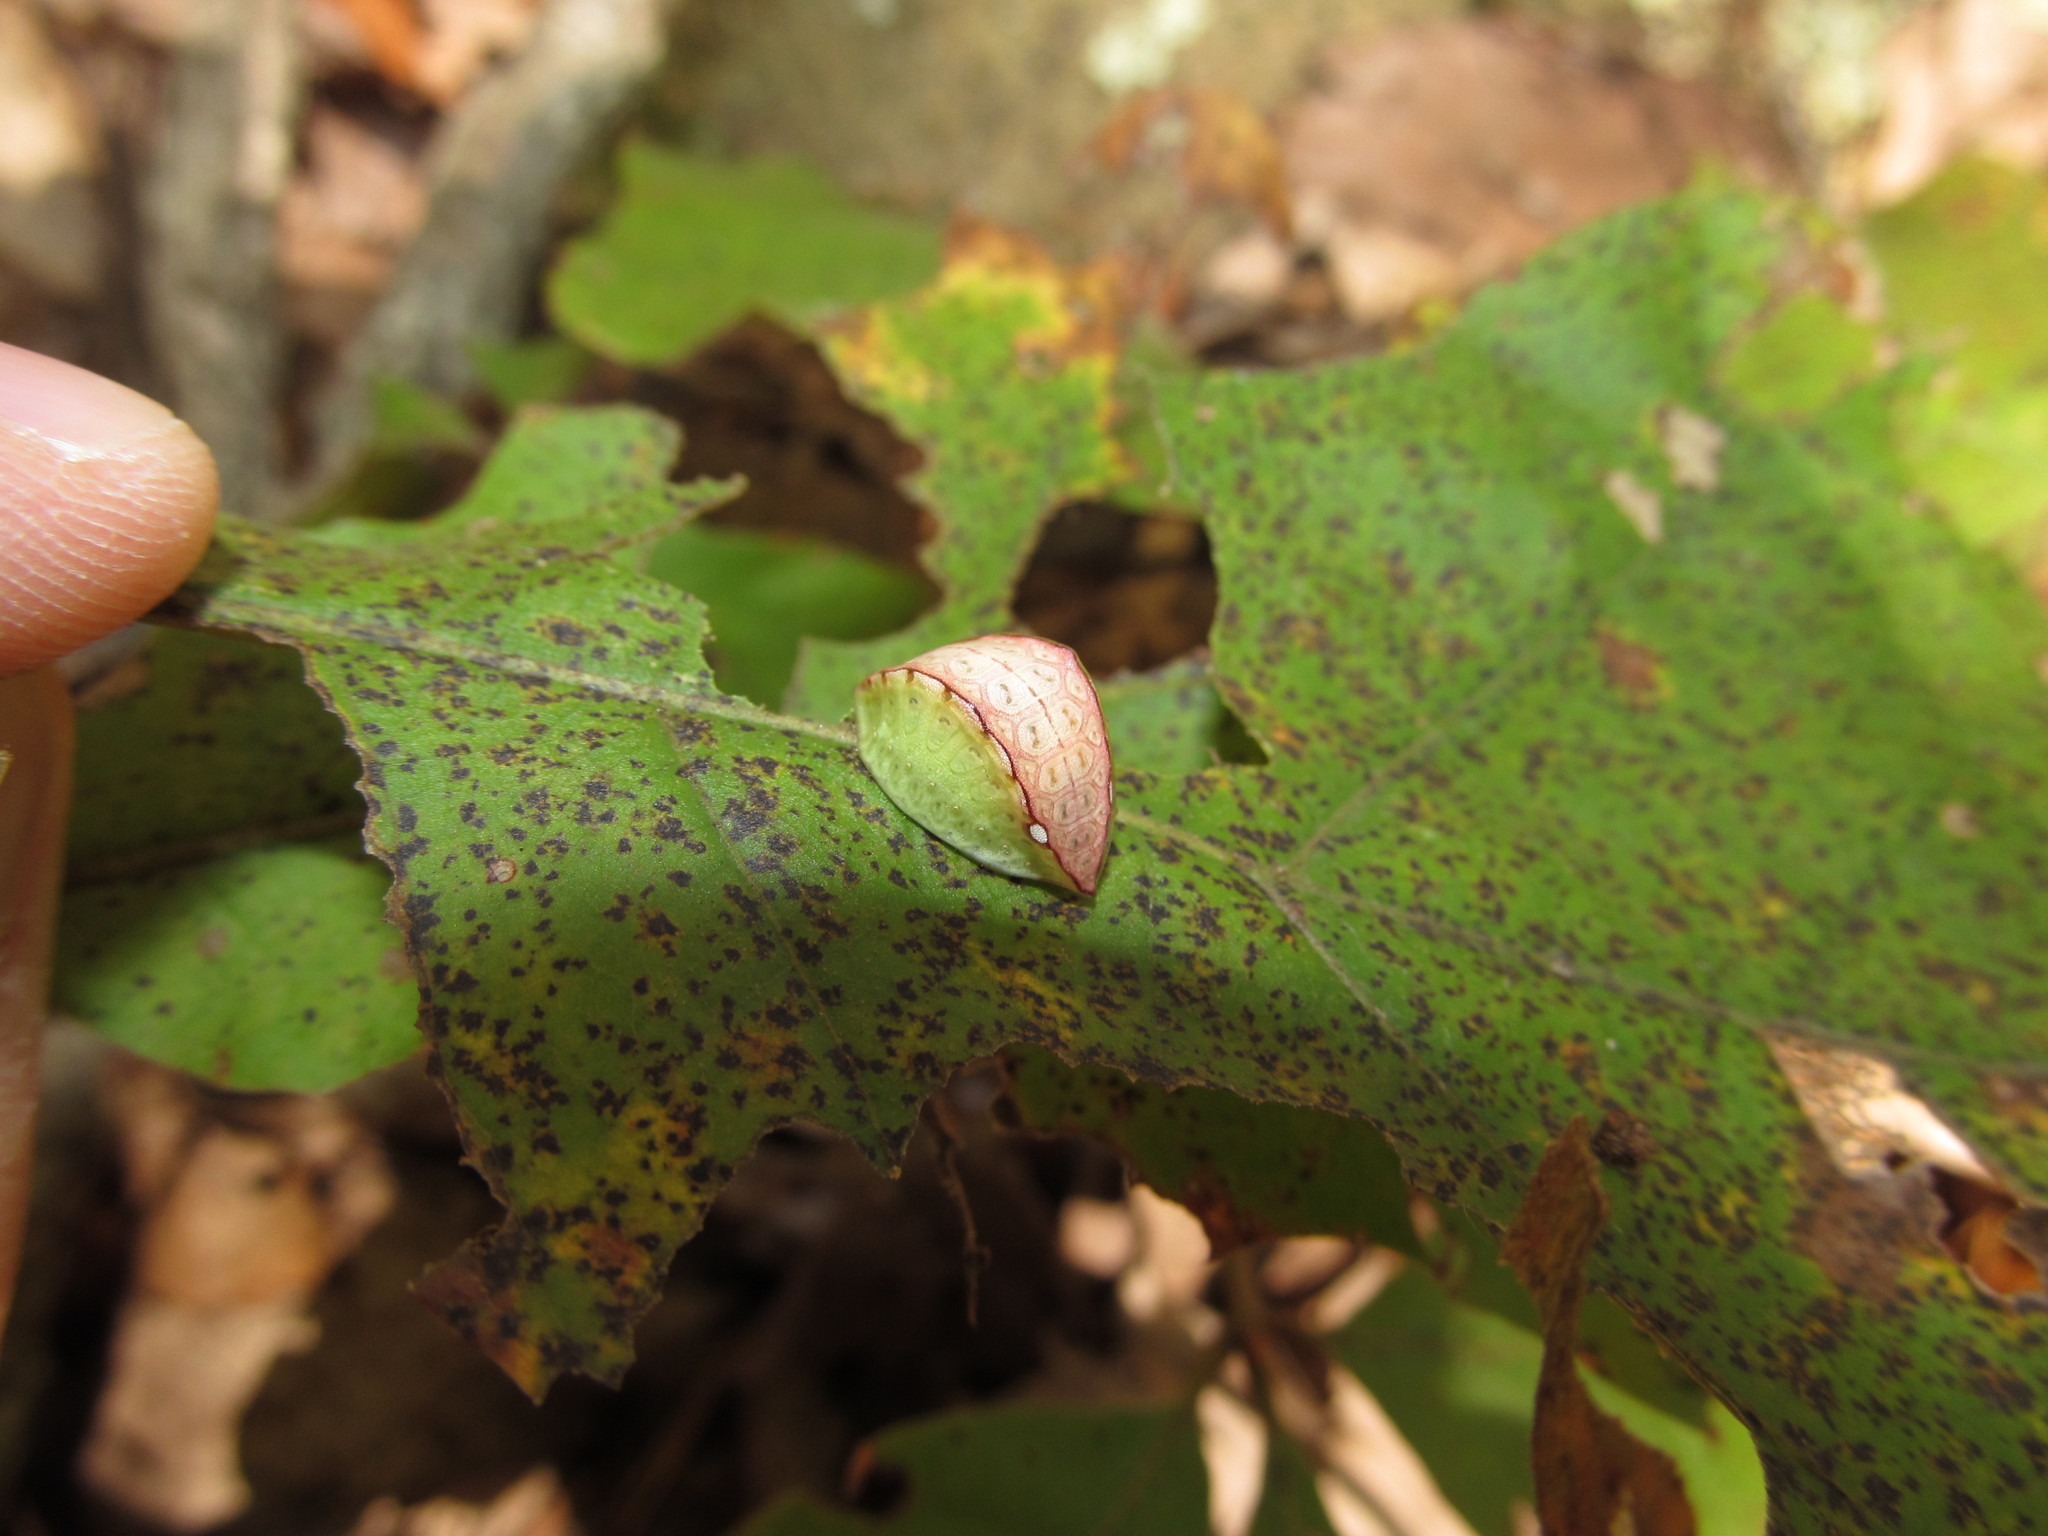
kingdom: Animalia
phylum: Arthropoda
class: Insecta
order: Lepidoptera
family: Limacodidae
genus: Prolimacodes
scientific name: Prolimacodes badia
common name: Skiff moth
